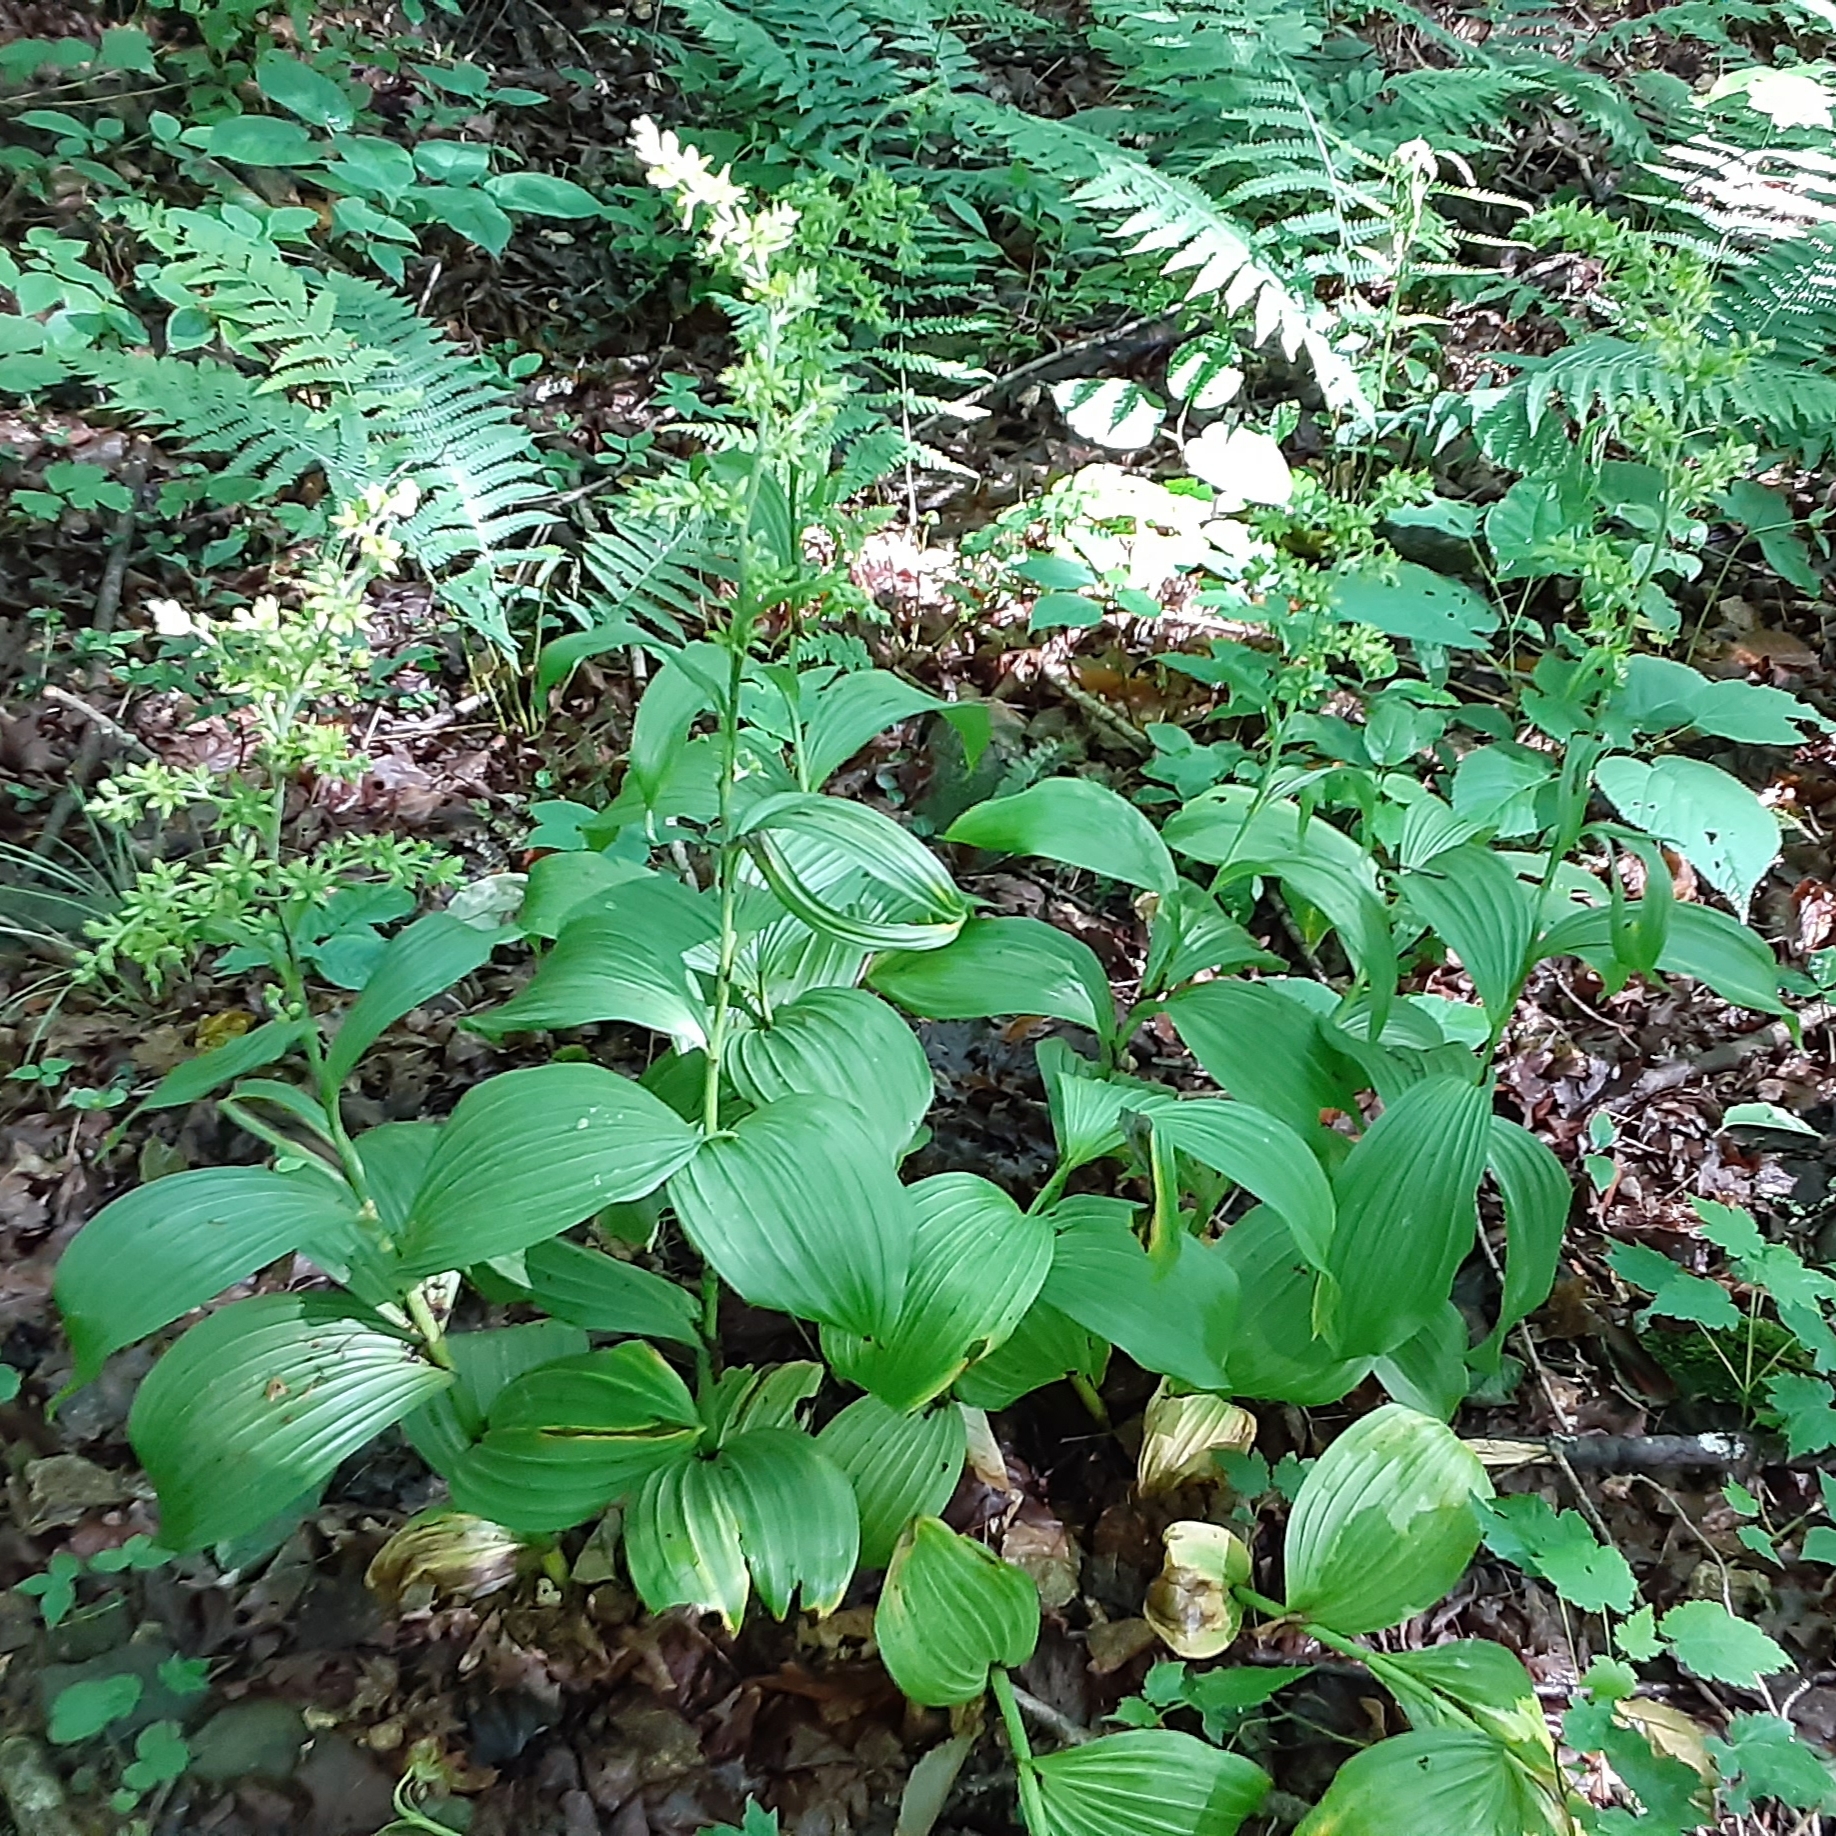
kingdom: Plantae
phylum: Tracheophyta
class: Liliopsida
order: Liliales
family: Melanthiaceae
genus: Veratrum
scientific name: Veratrum viride
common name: American false hellebore
